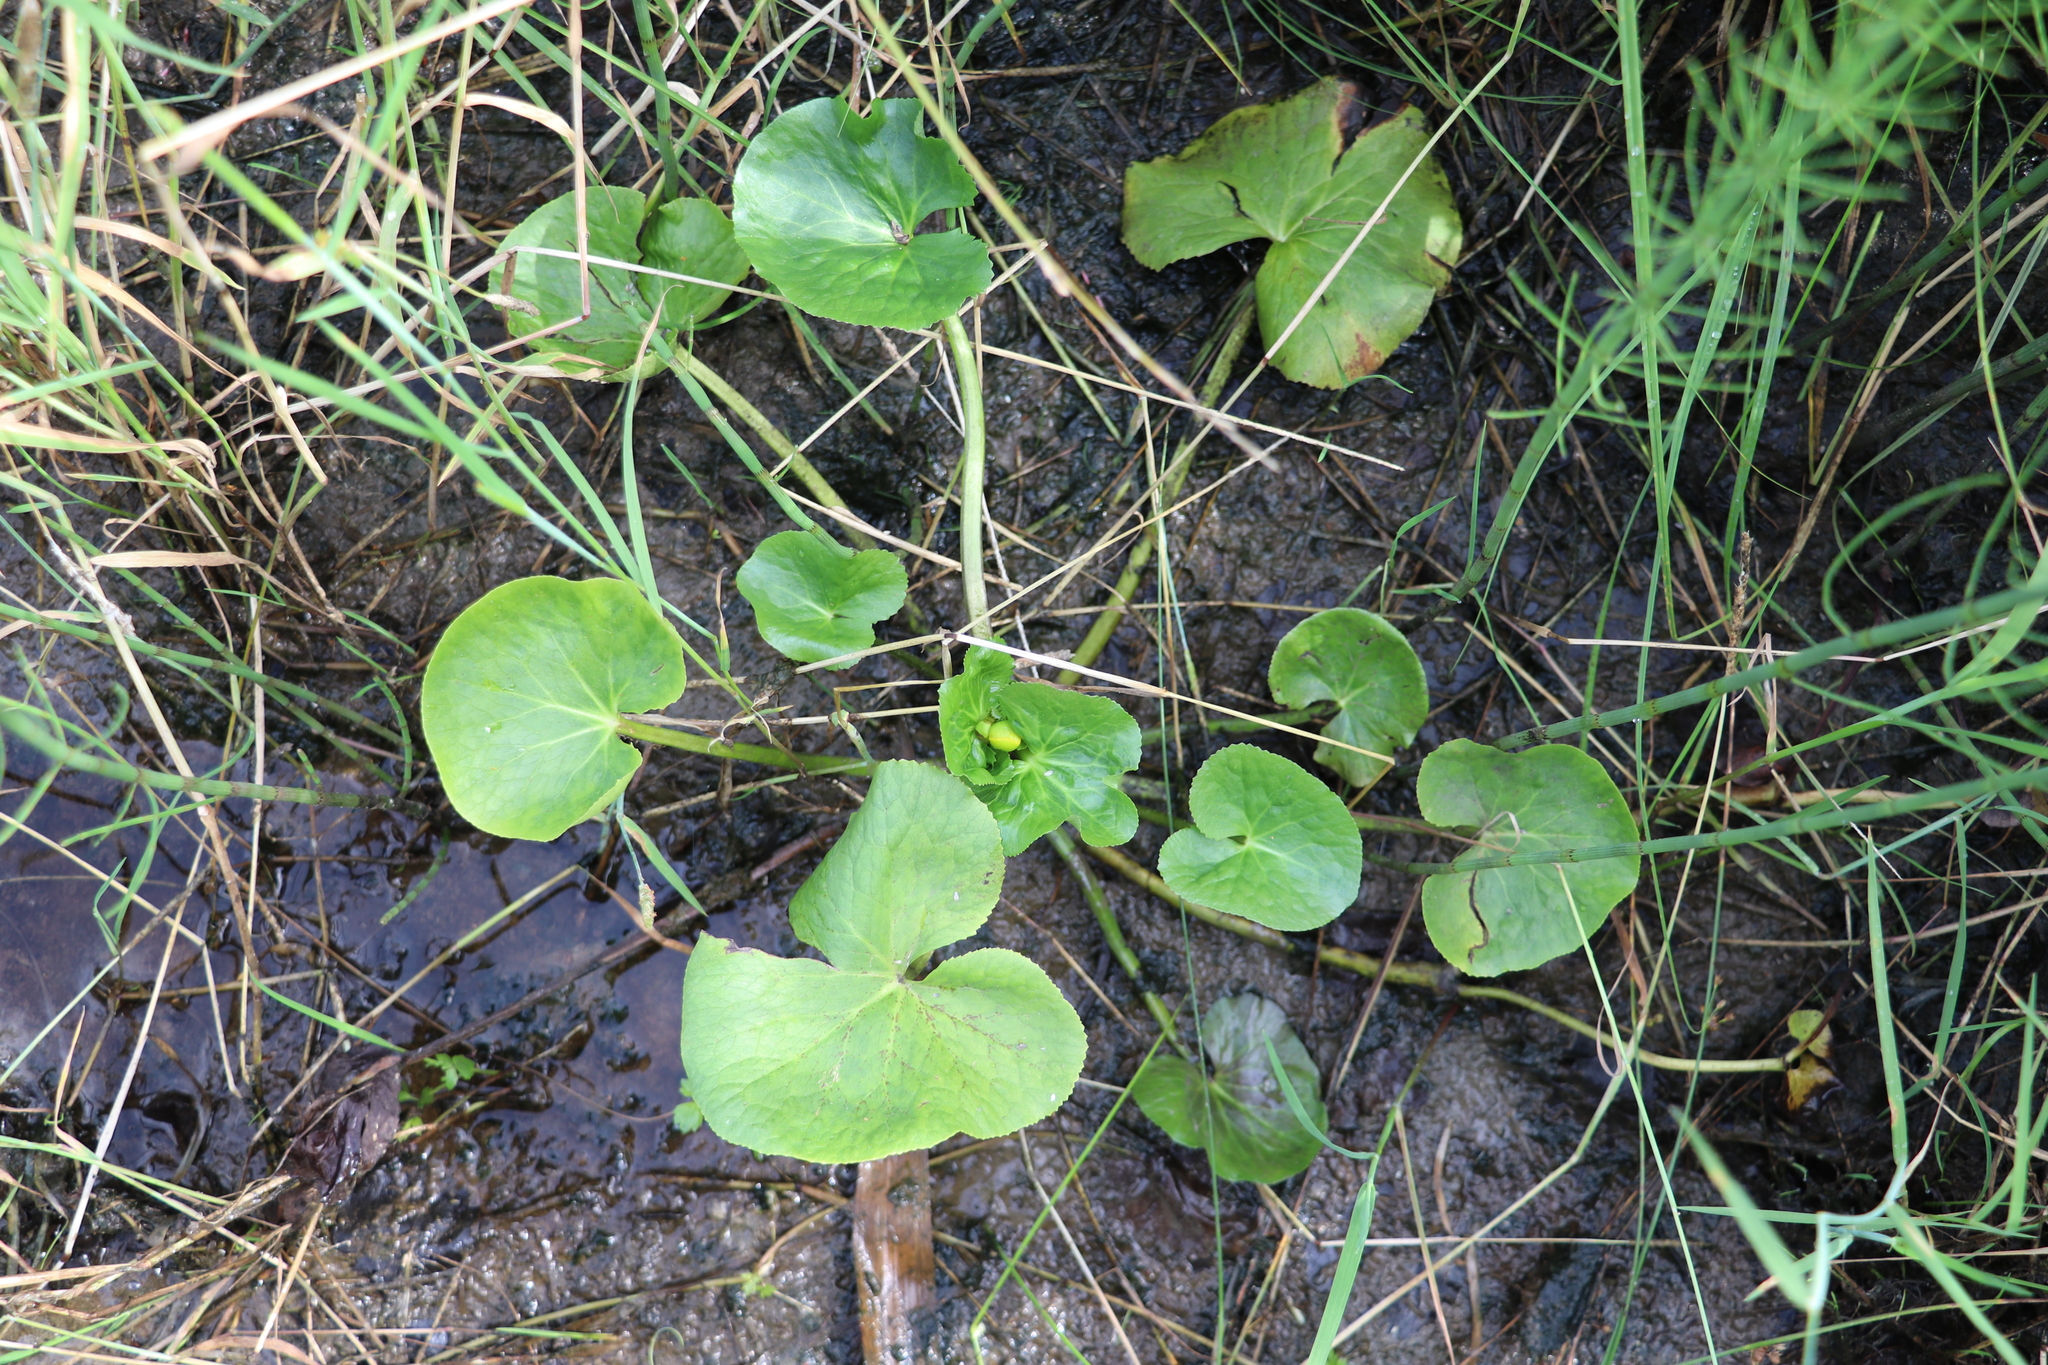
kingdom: Plantae
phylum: Tracheophyta
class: Magnoliopsida
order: Ranunculales
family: Ranunculaceae
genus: Caltha
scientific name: Caltha palustris
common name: Marsh marigold
